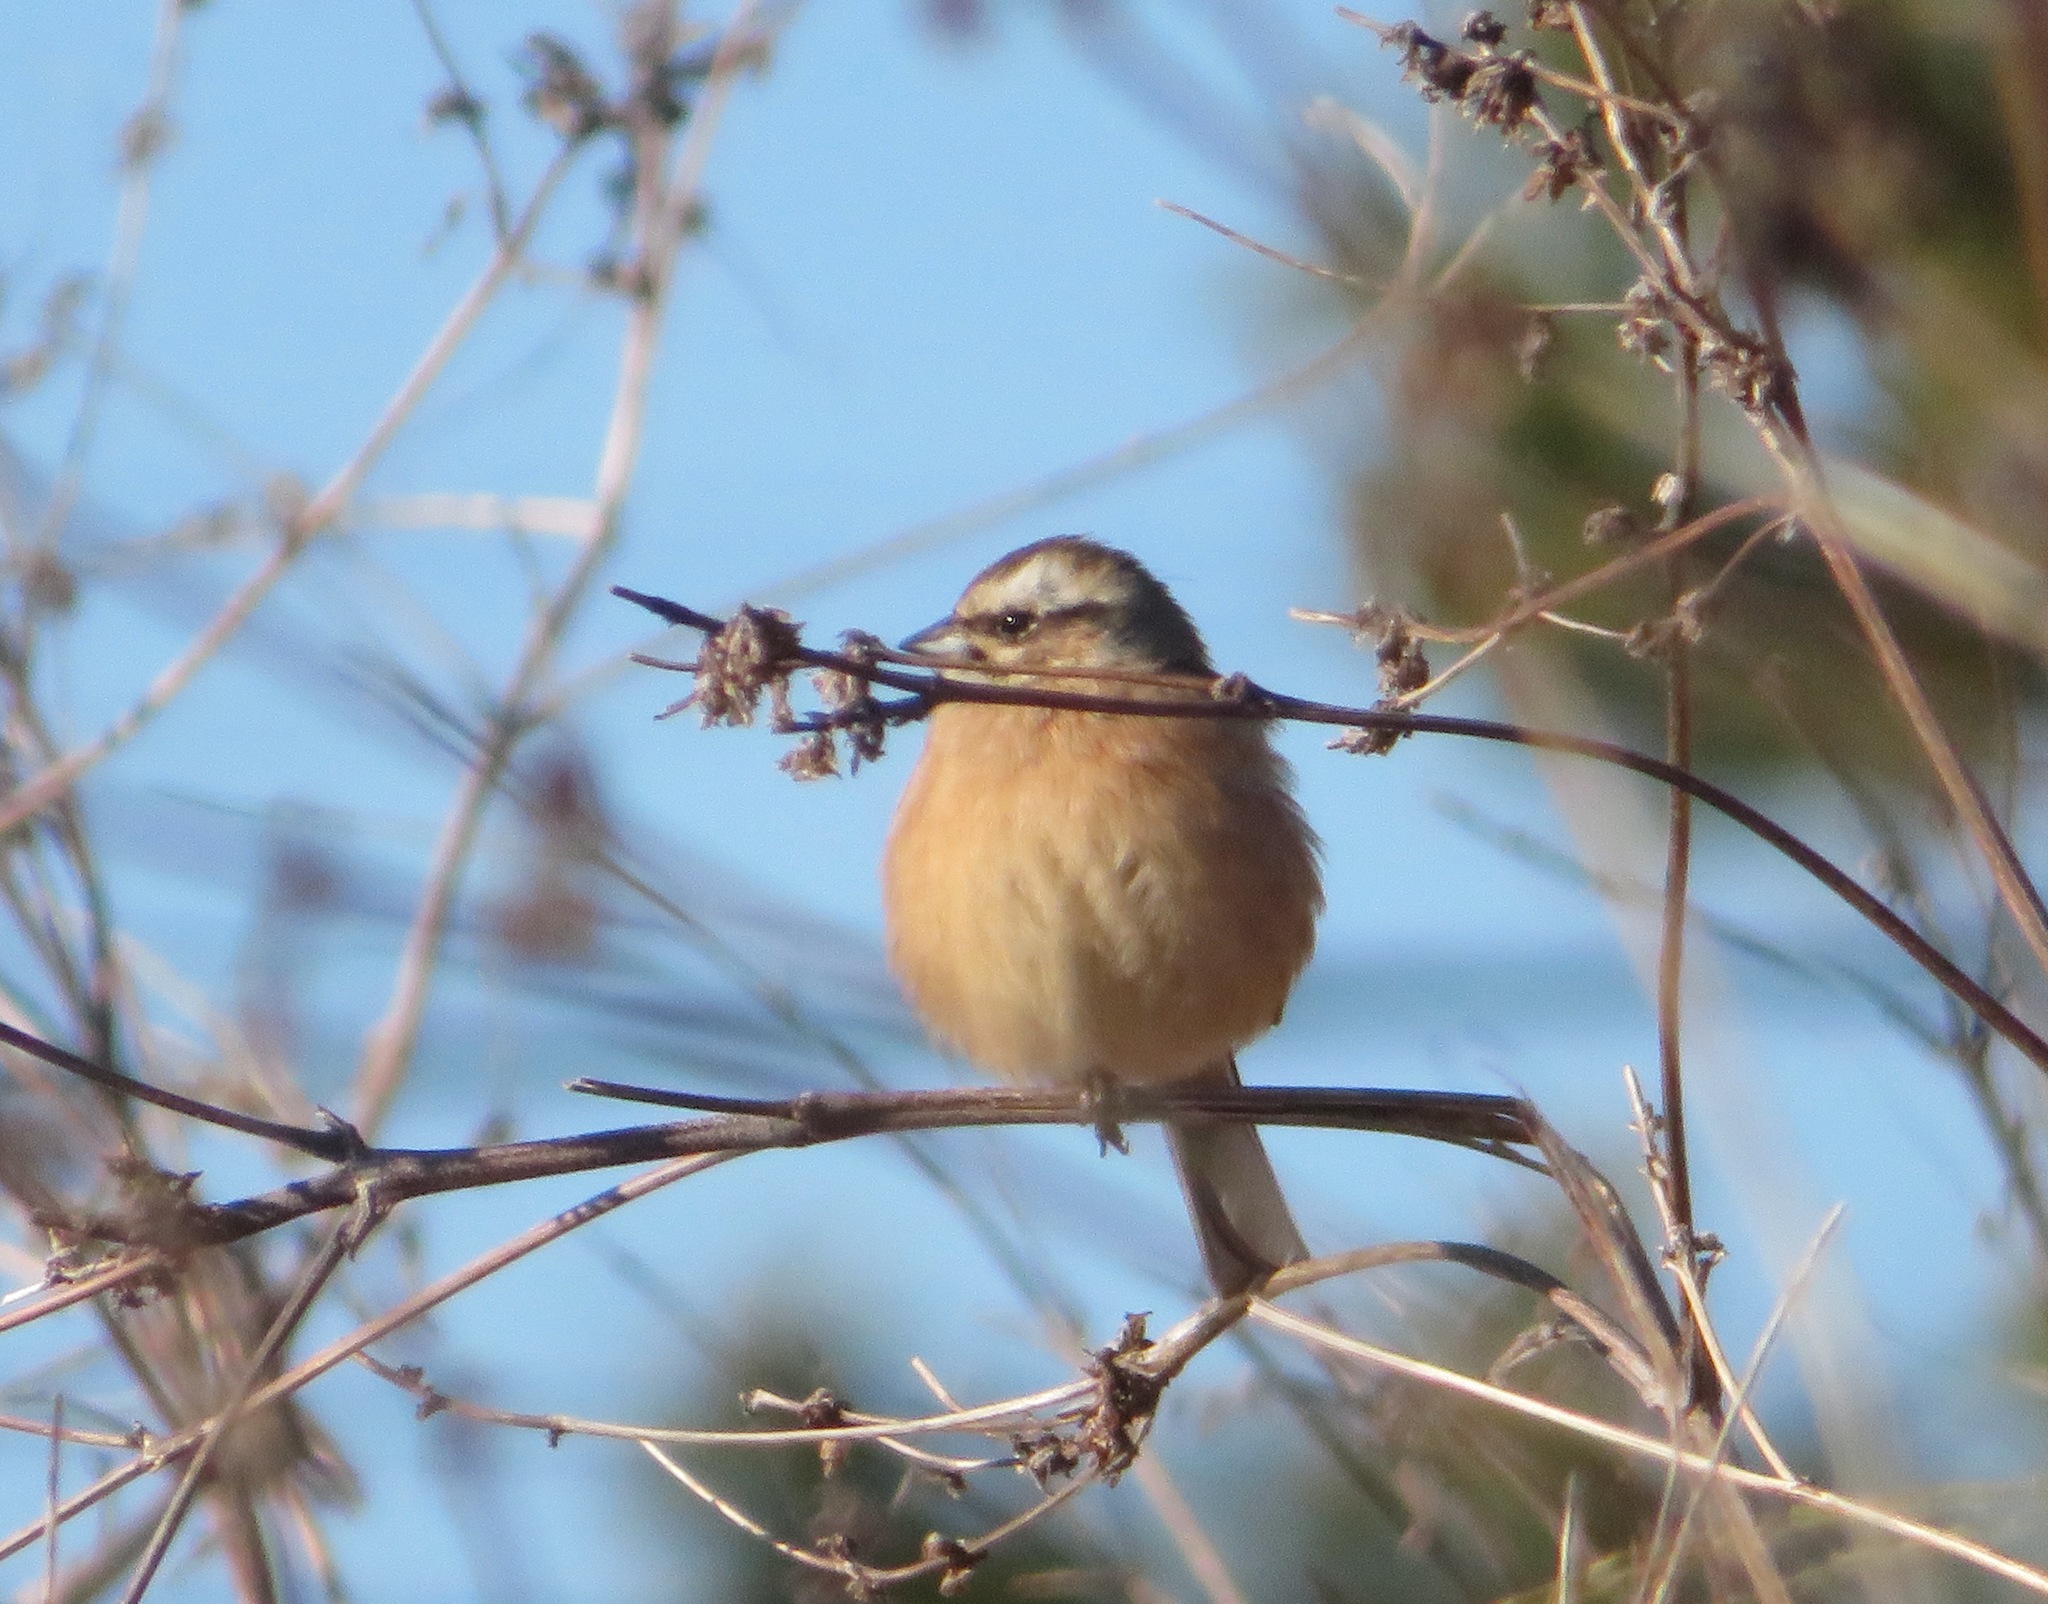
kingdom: Animalia
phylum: Chordata
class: Aves
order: Passeriformes
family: Emberizidae
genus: Emberiza
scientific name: Emberiza cioides
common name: Meadow bunting
